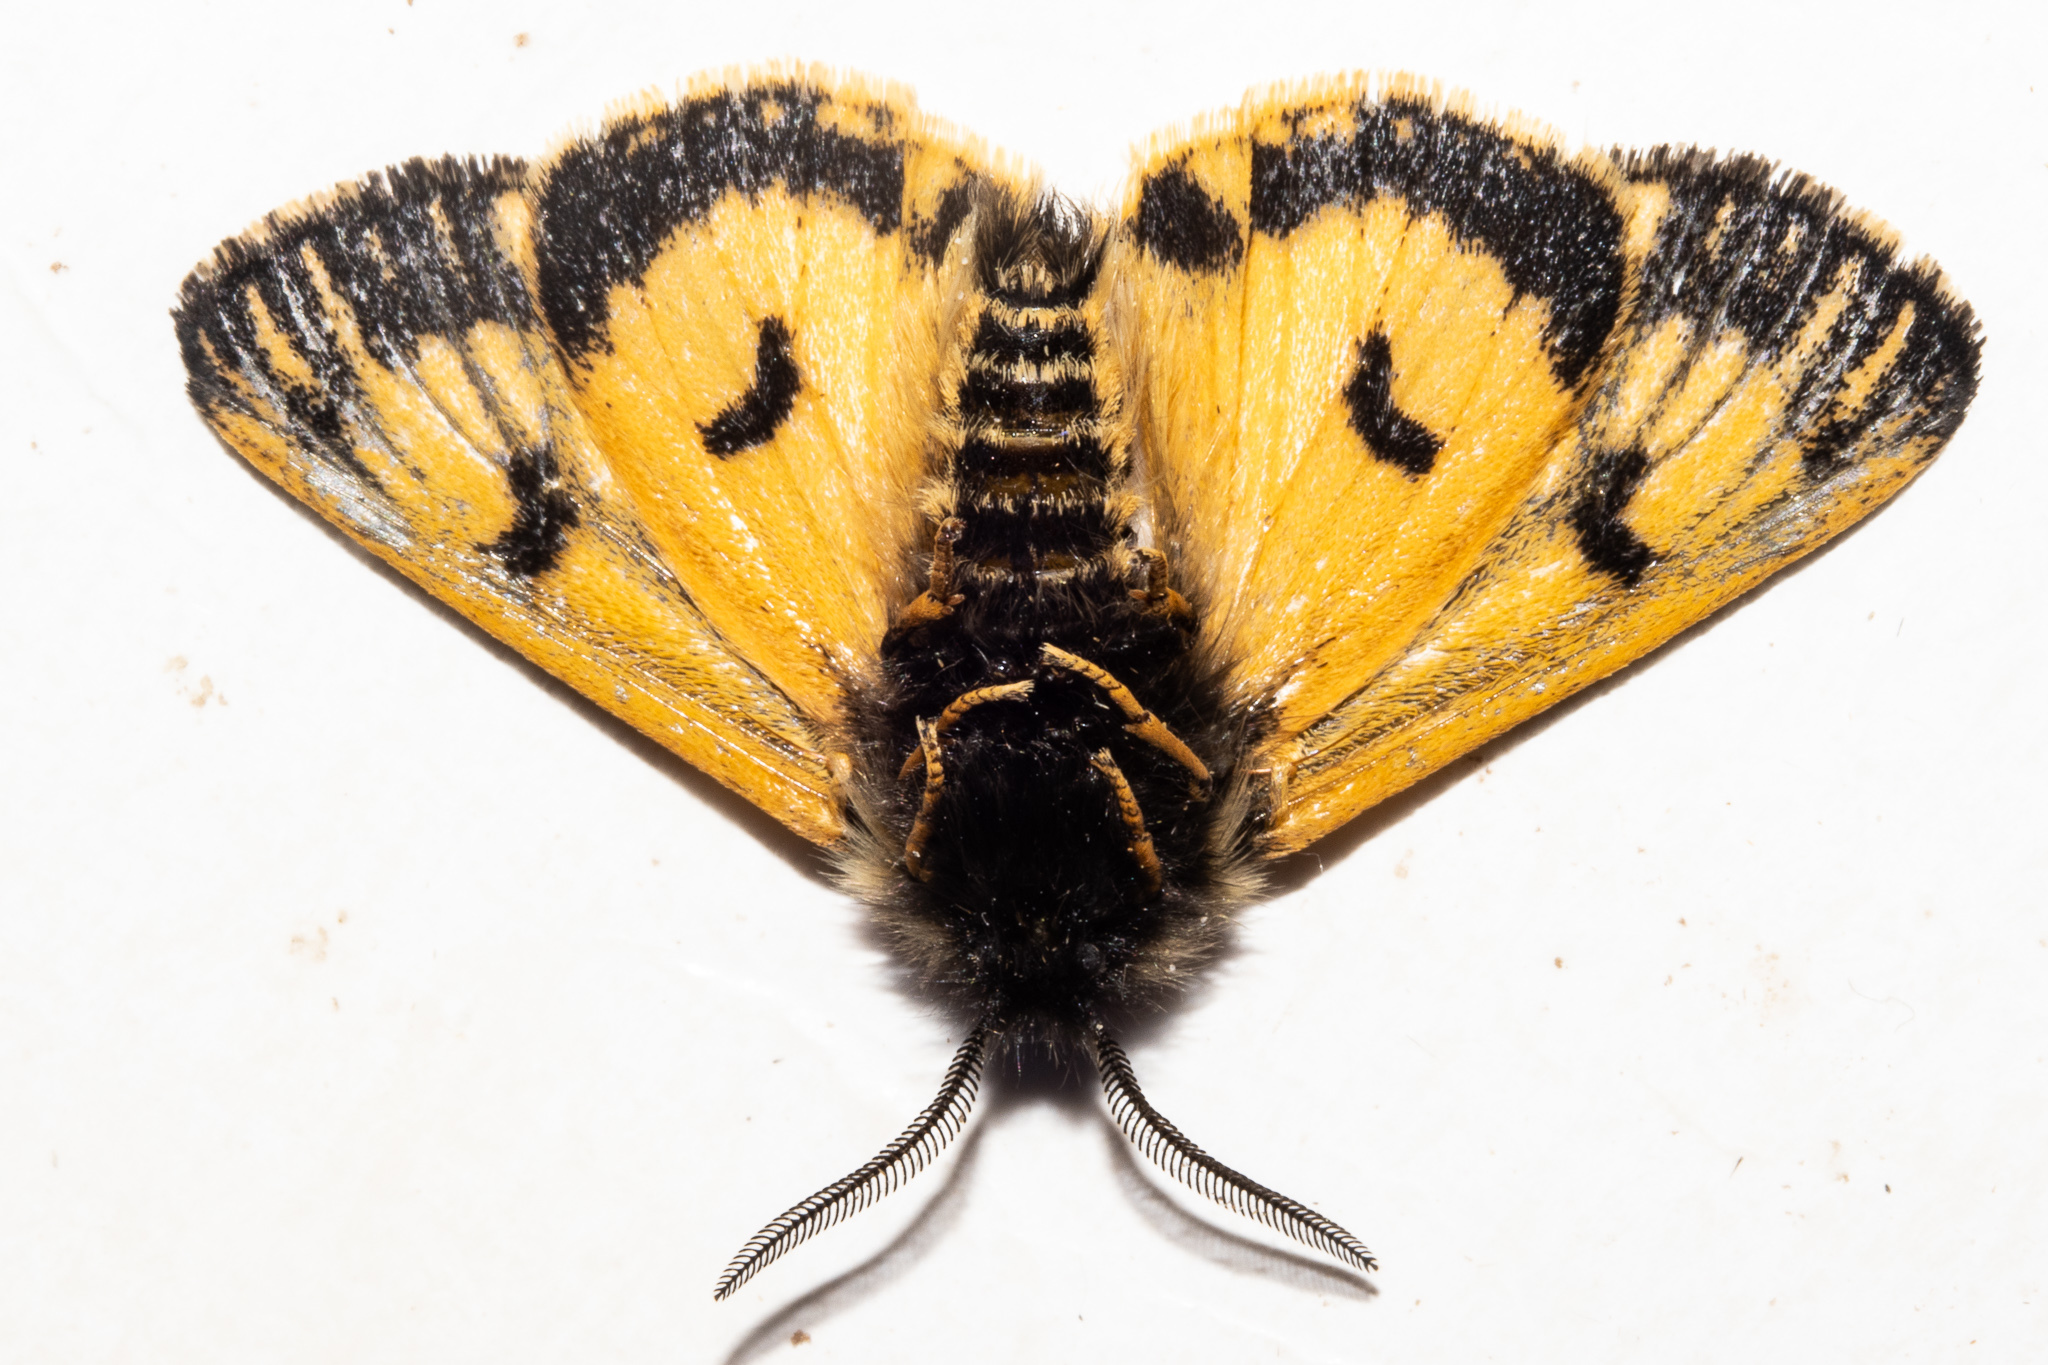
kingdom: Animalia
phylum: Arthropoda
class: Insecta
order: Lepidoptera
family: Erebidae
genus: Metacrias
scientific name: Metacrias erichrysa
